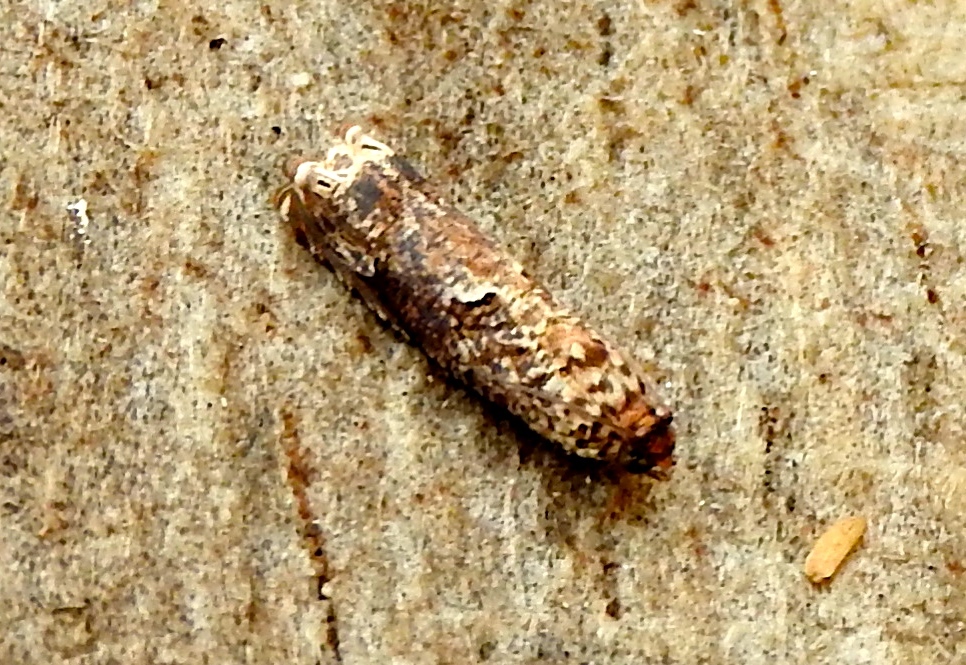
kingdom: Animalia
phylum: Arthropoda
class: Insecta
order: Lepidoptera
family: Tortricidae
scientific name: Tortricidae
